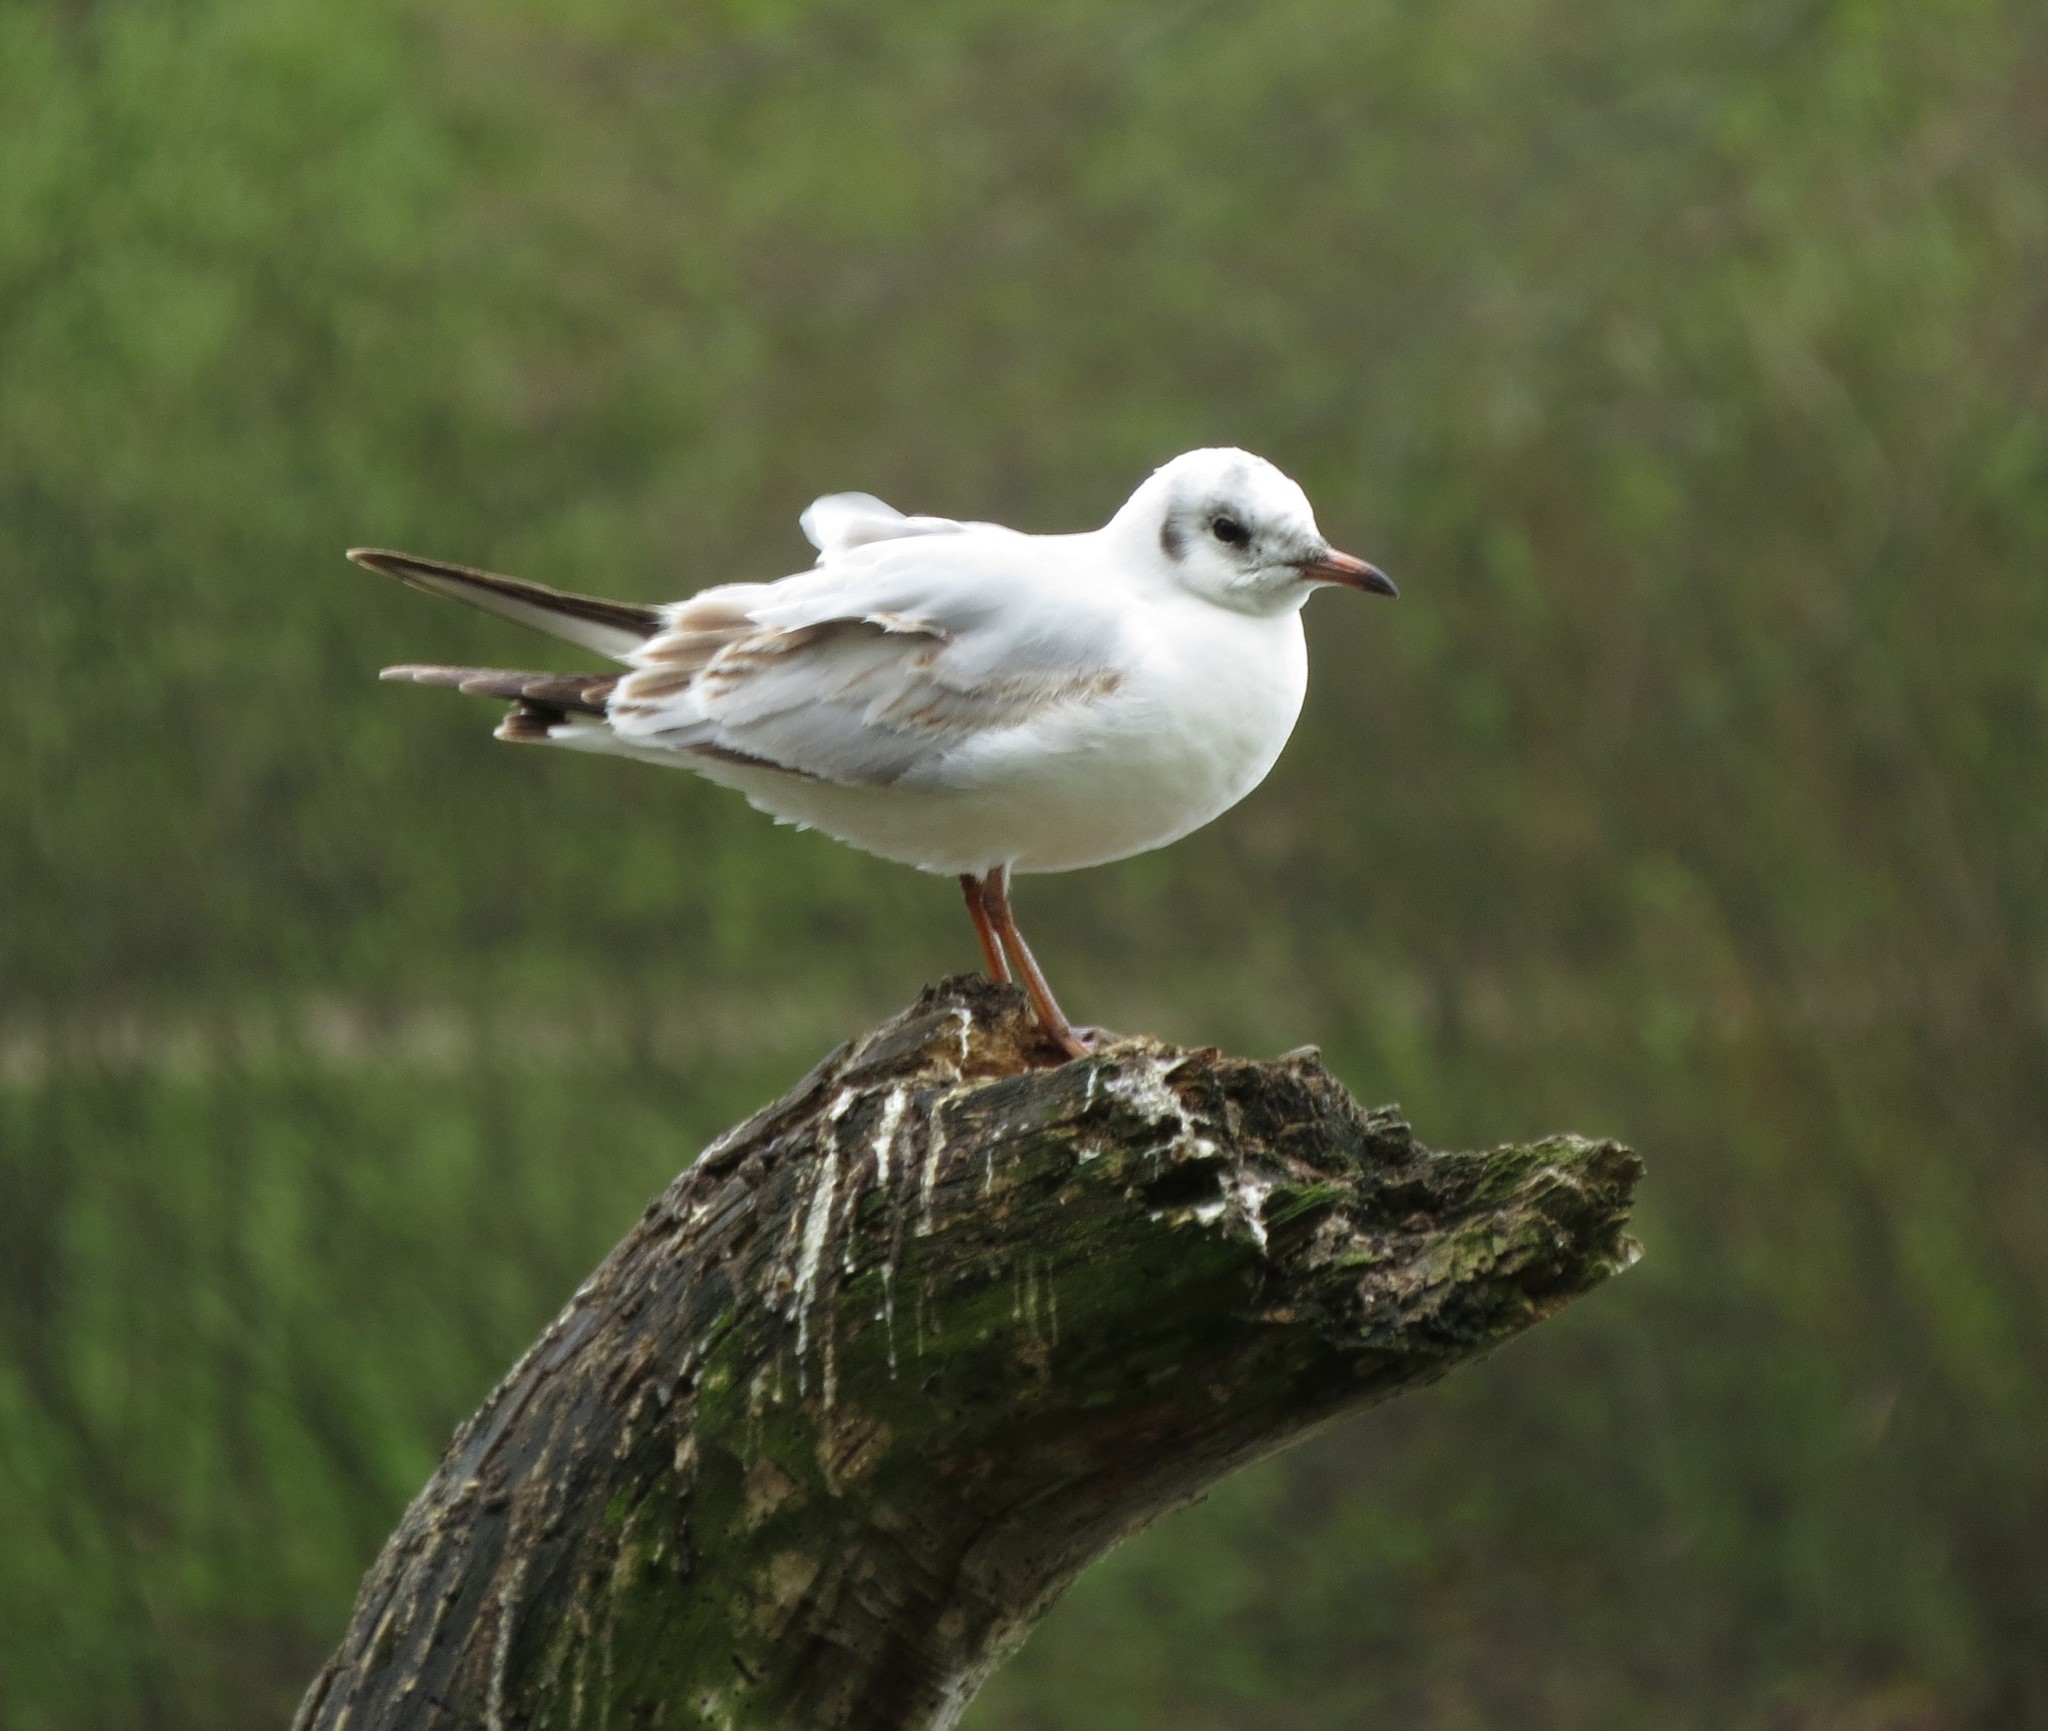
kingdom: Animalia
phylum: Chordata
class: Aves
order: Charadriiformes
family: Laridae
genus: Chroicocephalus
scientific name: Chroicocephalus ridibundus
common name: Black-headed gull
